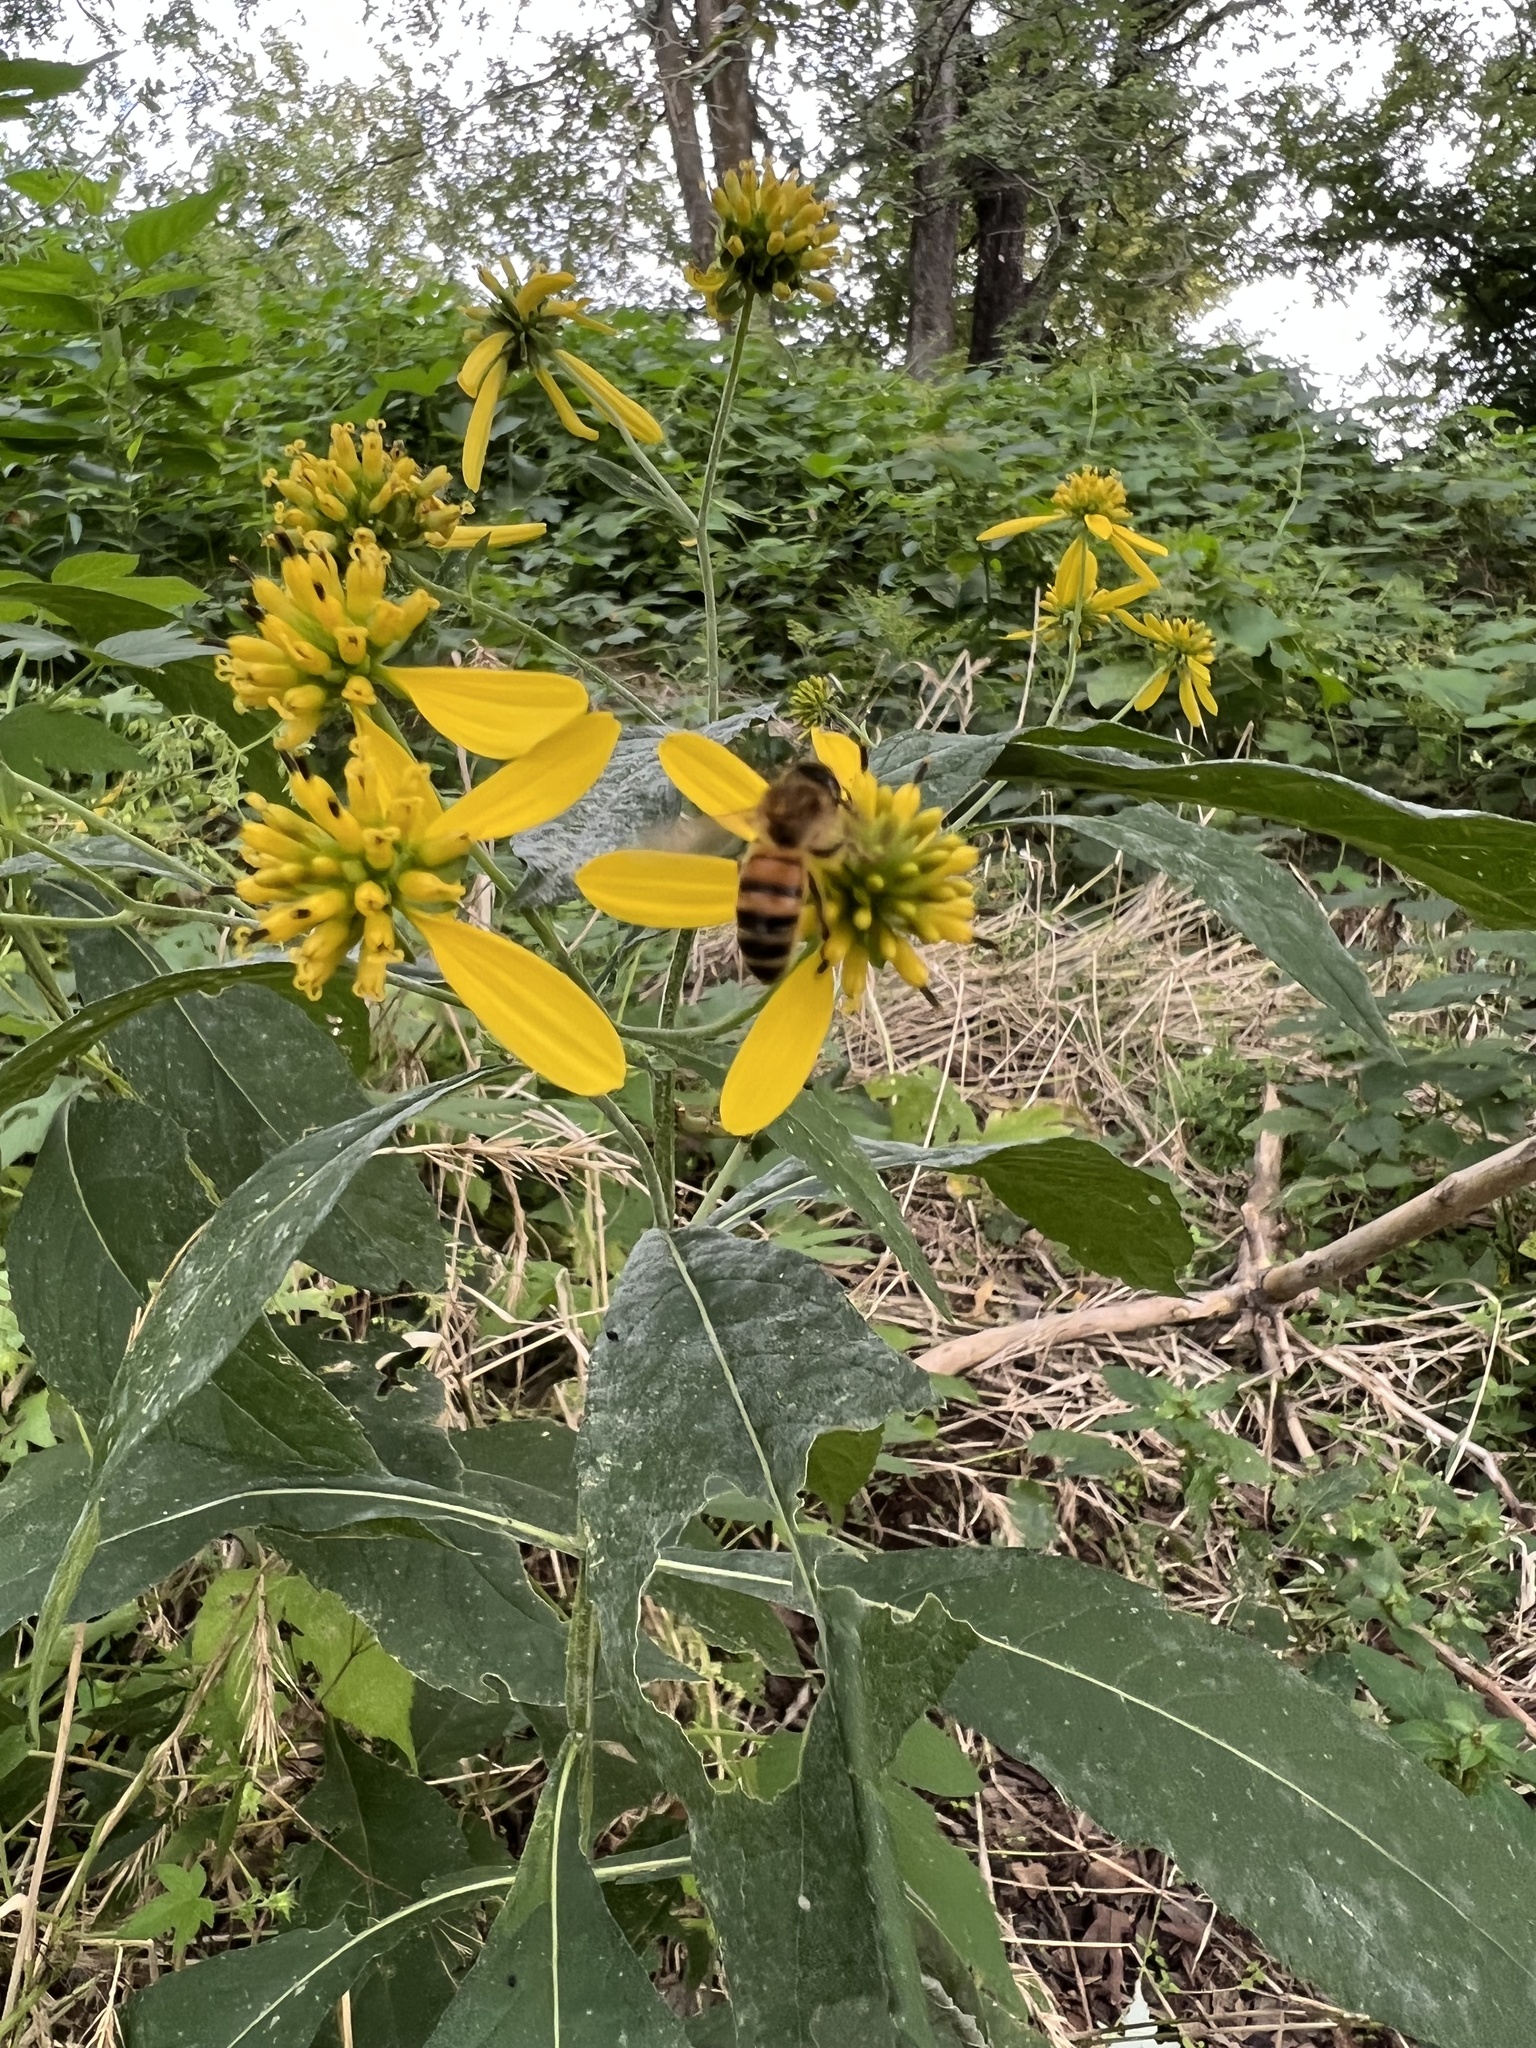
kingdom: Animalia
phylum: Arthropoda
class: Insecta
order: Hymenoptera
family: Apidae
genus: Apis
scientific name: Apis mellifera
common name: Honey bee
